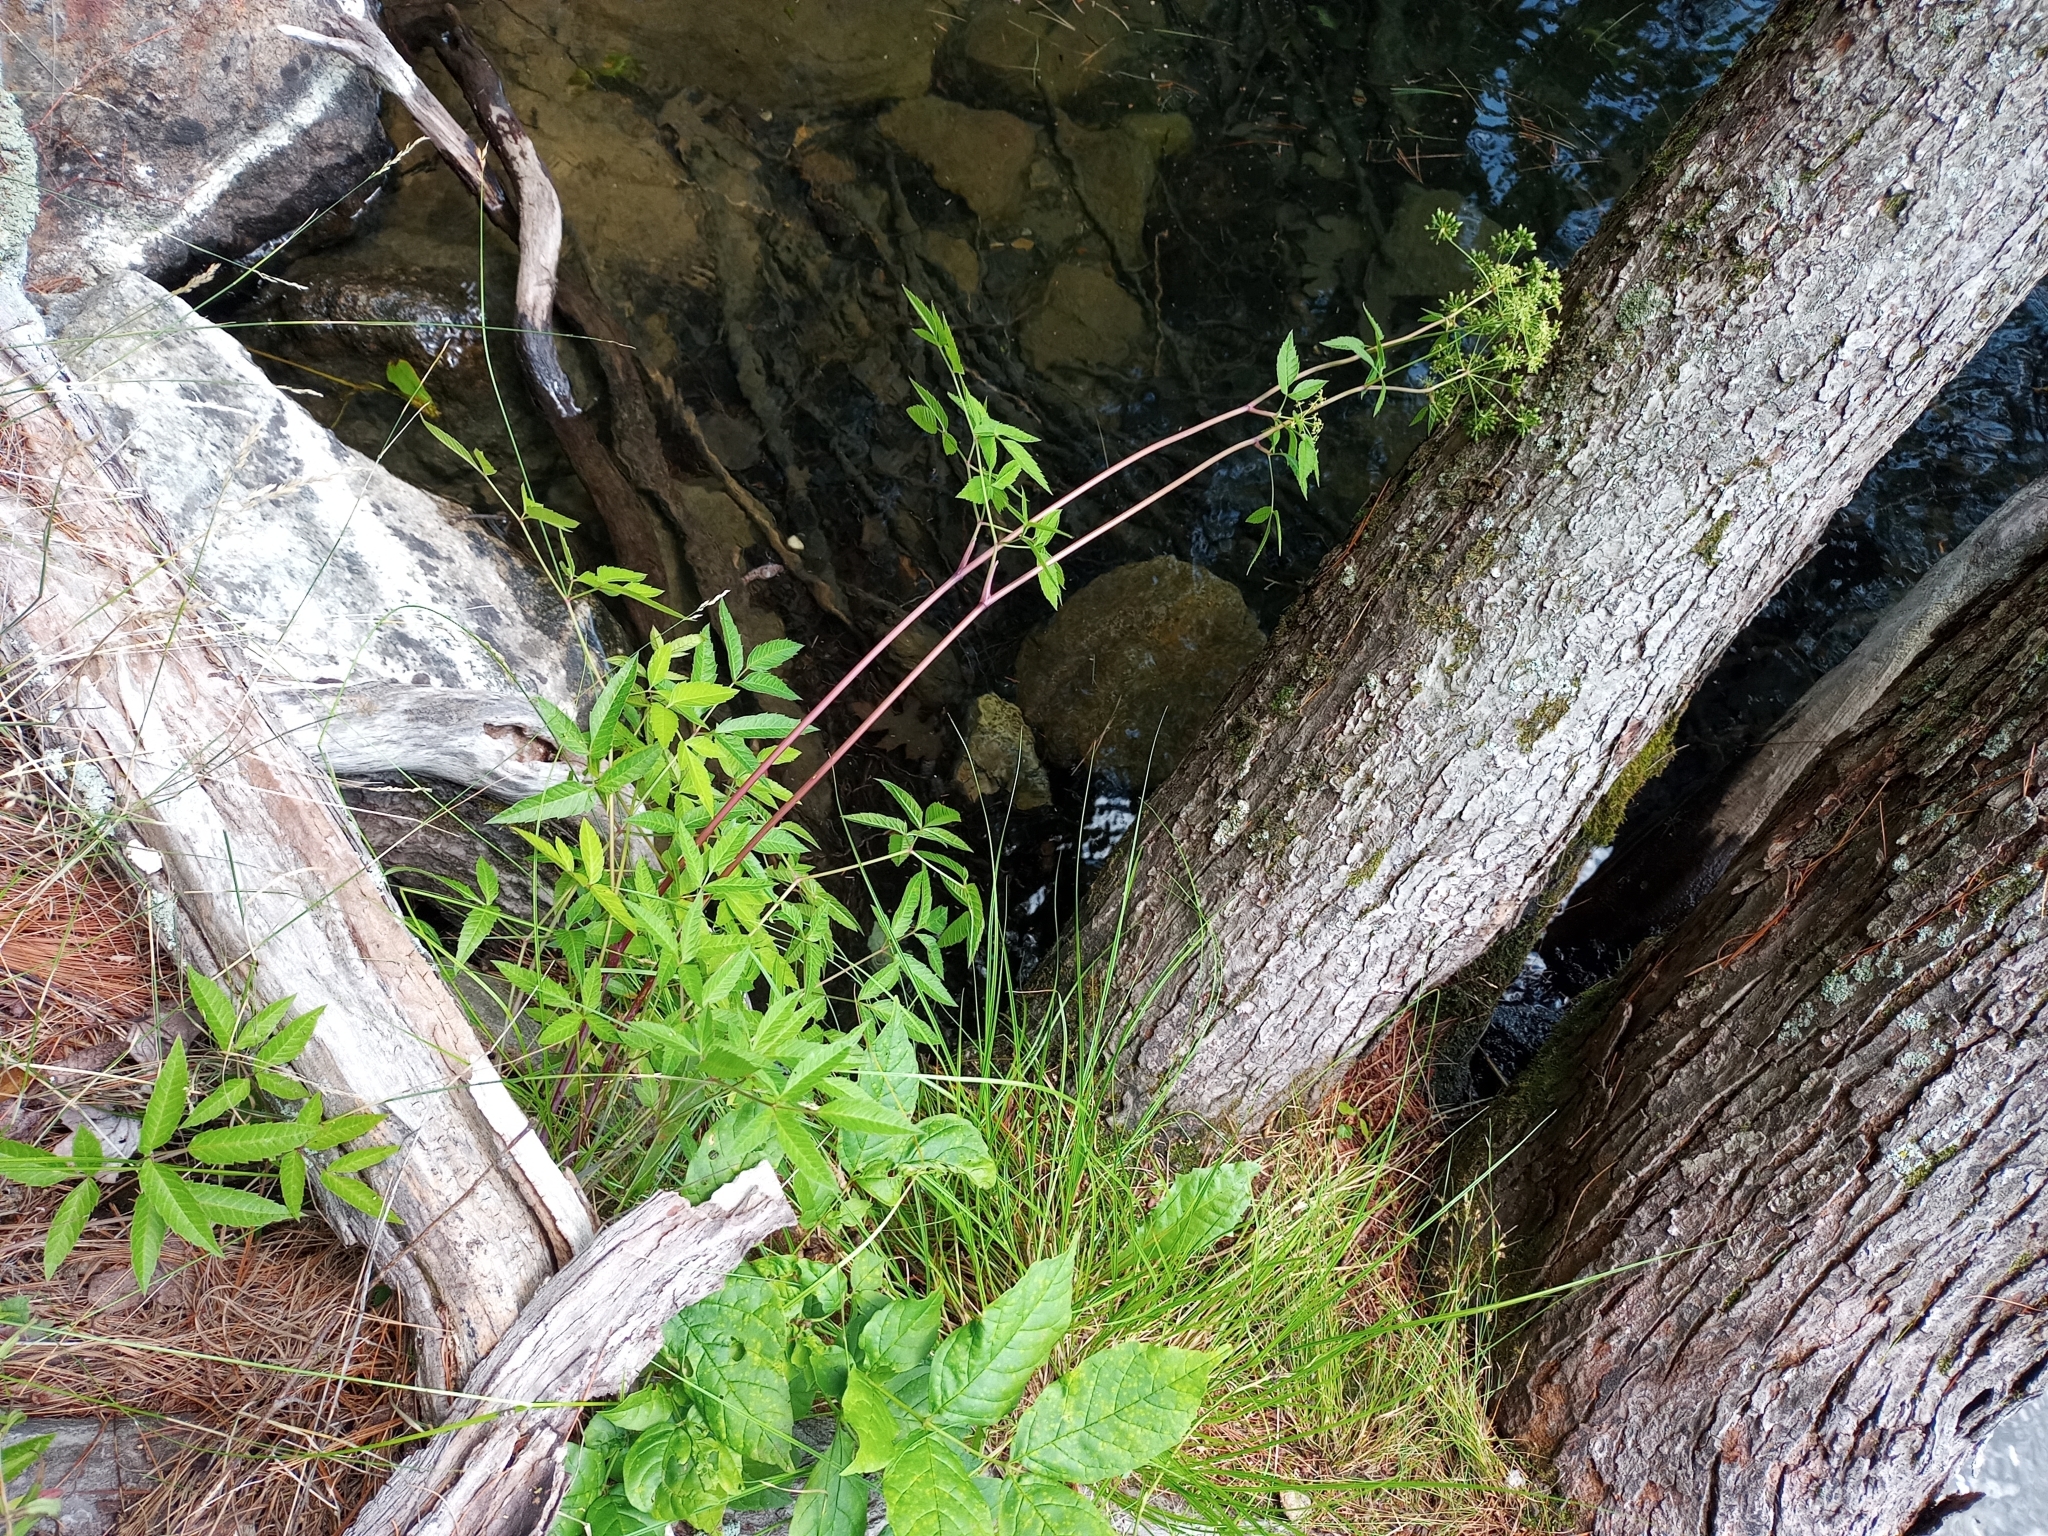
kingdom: Plantae
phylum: Tracheophyta
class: Magnoliopsida
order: Apiales
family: Apiaceae
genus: Cicuta
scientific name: Cicuta maculata
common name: Spotted cowbane
